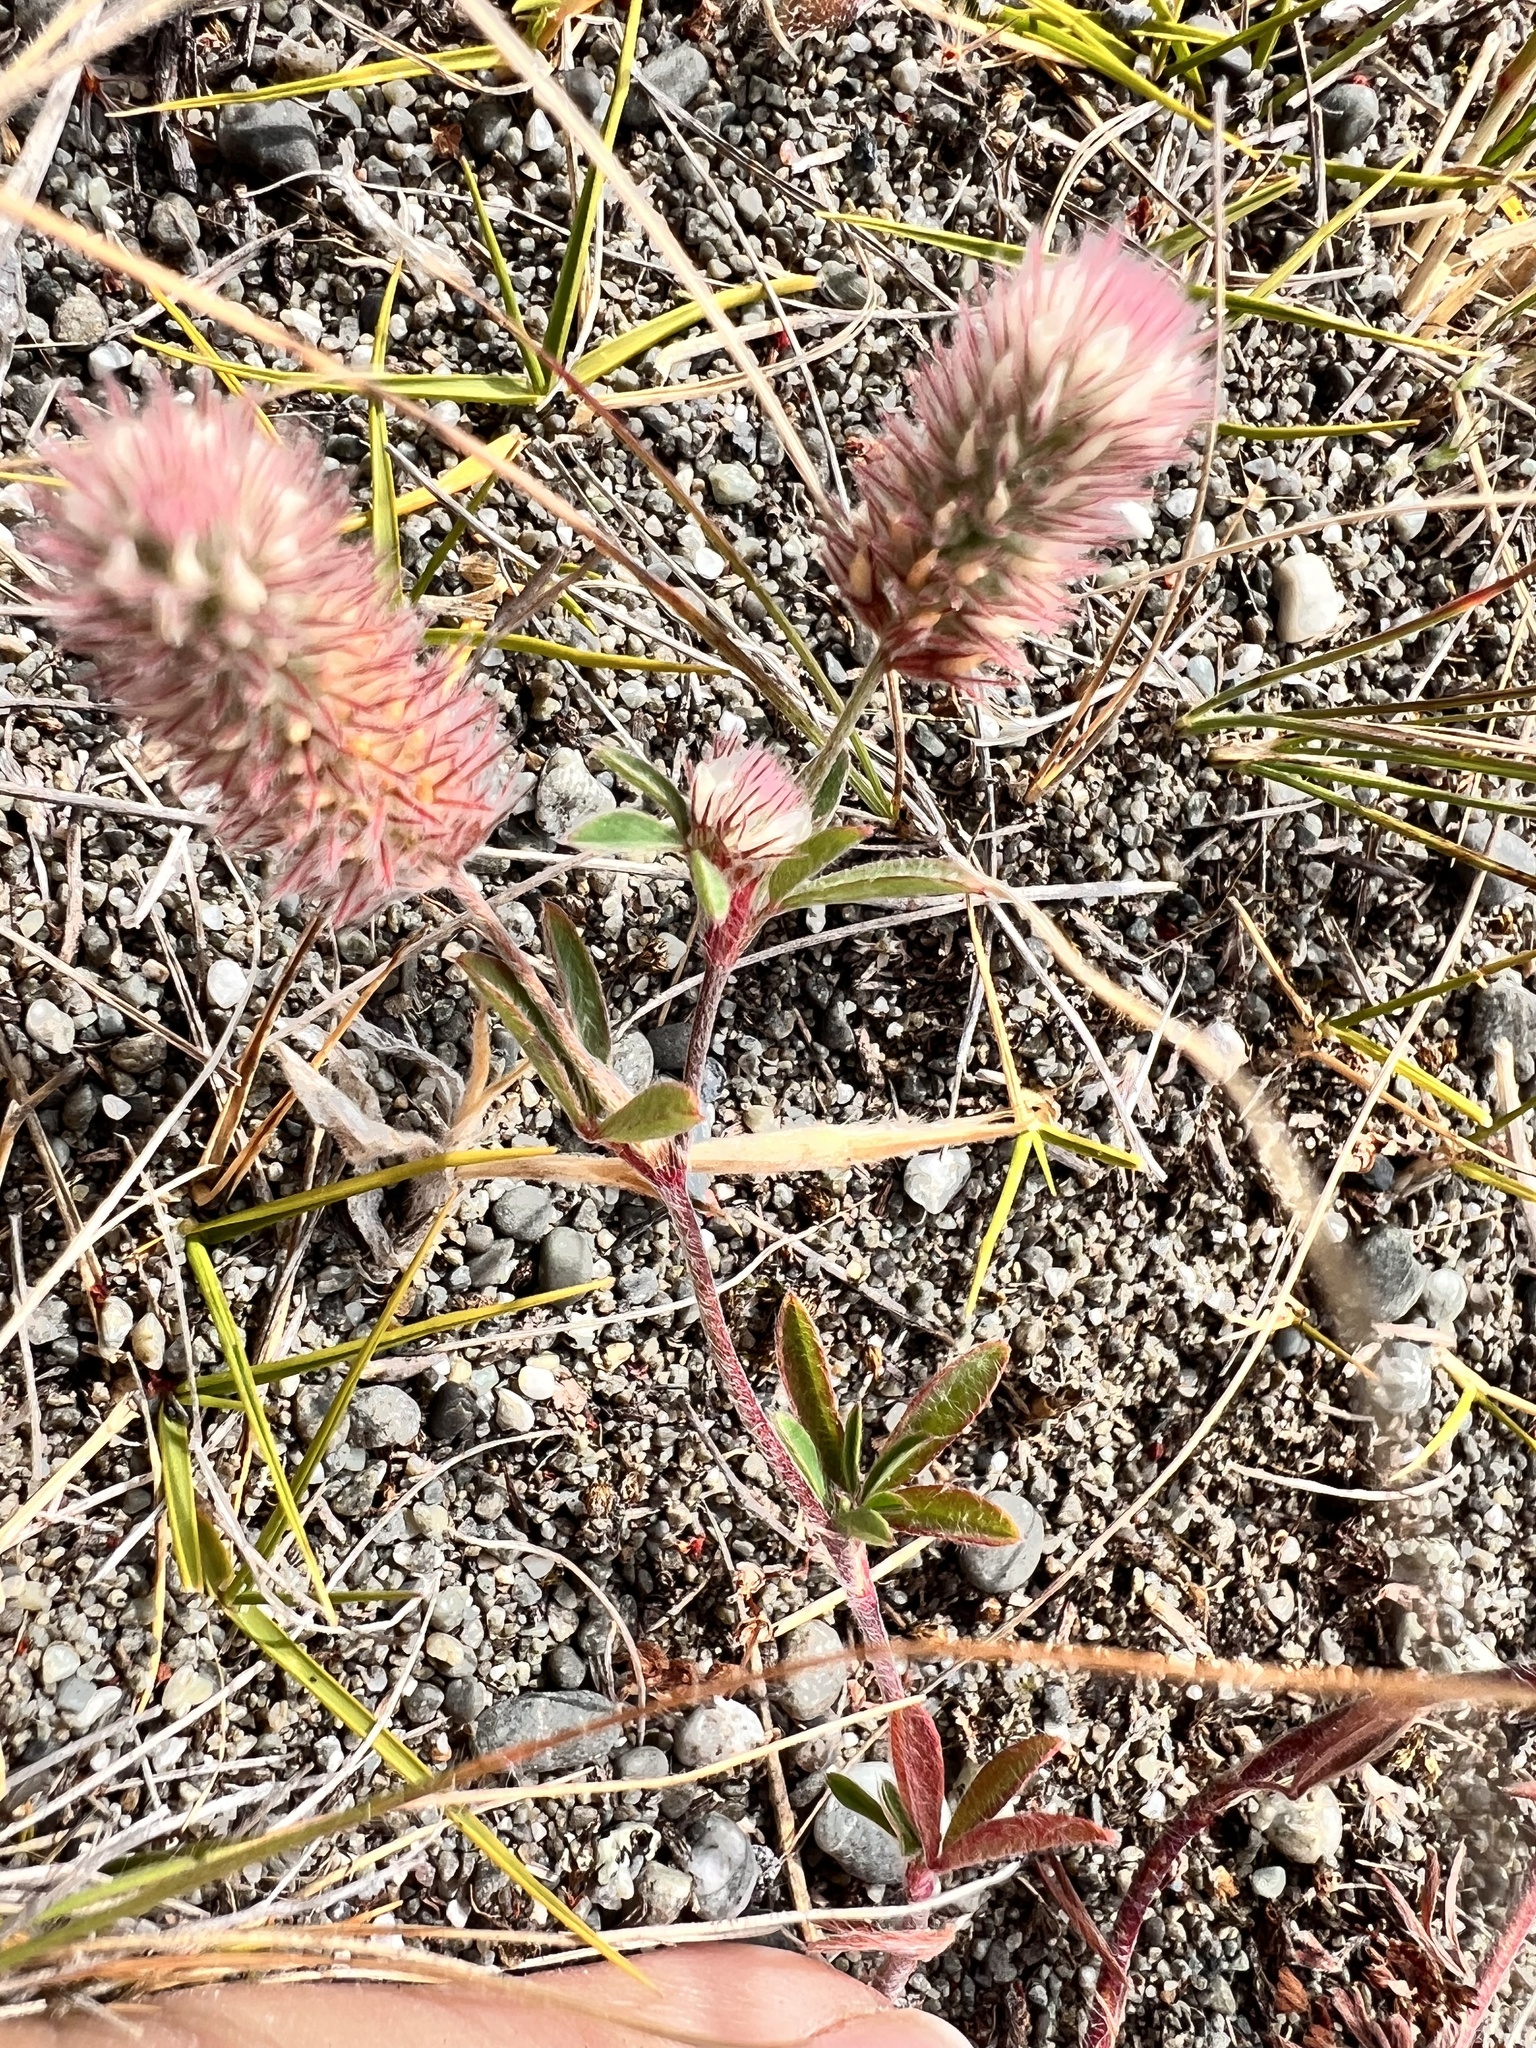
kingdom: Plantae
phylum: Tracheophyta
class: Magnoliopsida
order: Fabales
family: Fabaceae
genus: Trifolium
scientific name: Trifolium arvense
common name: Hare's-foot clover
